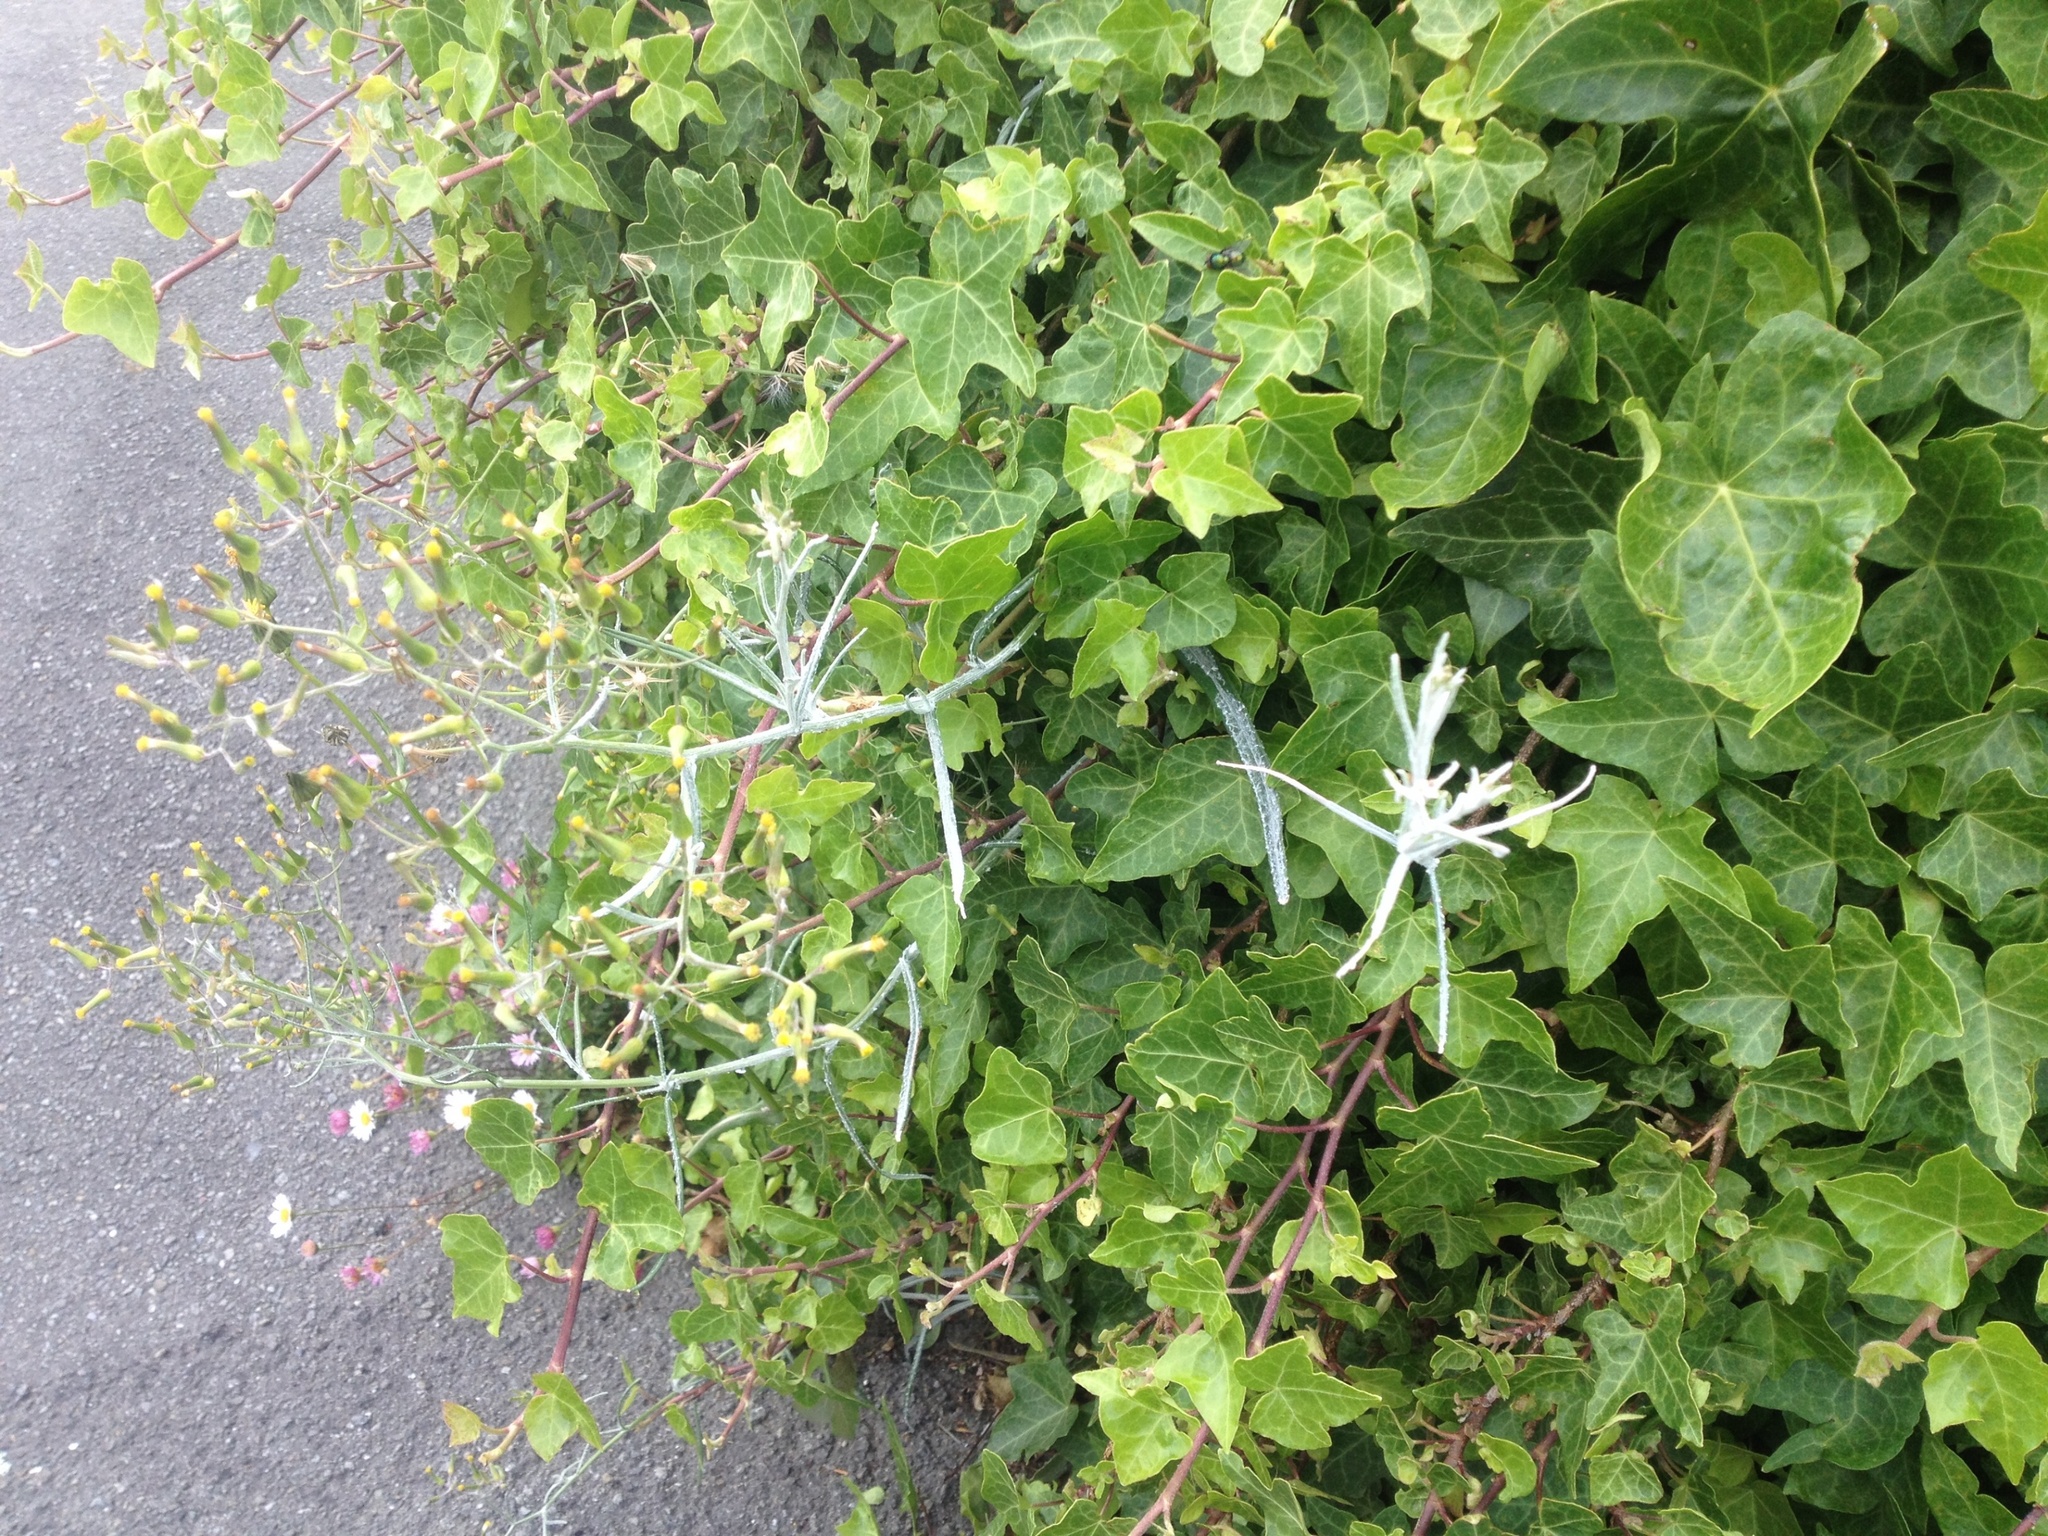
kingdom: Plantae
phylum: Tracheophyta
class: Magnoliopsida
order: Asterales
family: Asteraceae
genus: Senecio
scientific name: Senecio quadridentatus
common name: Cotton fireweed
